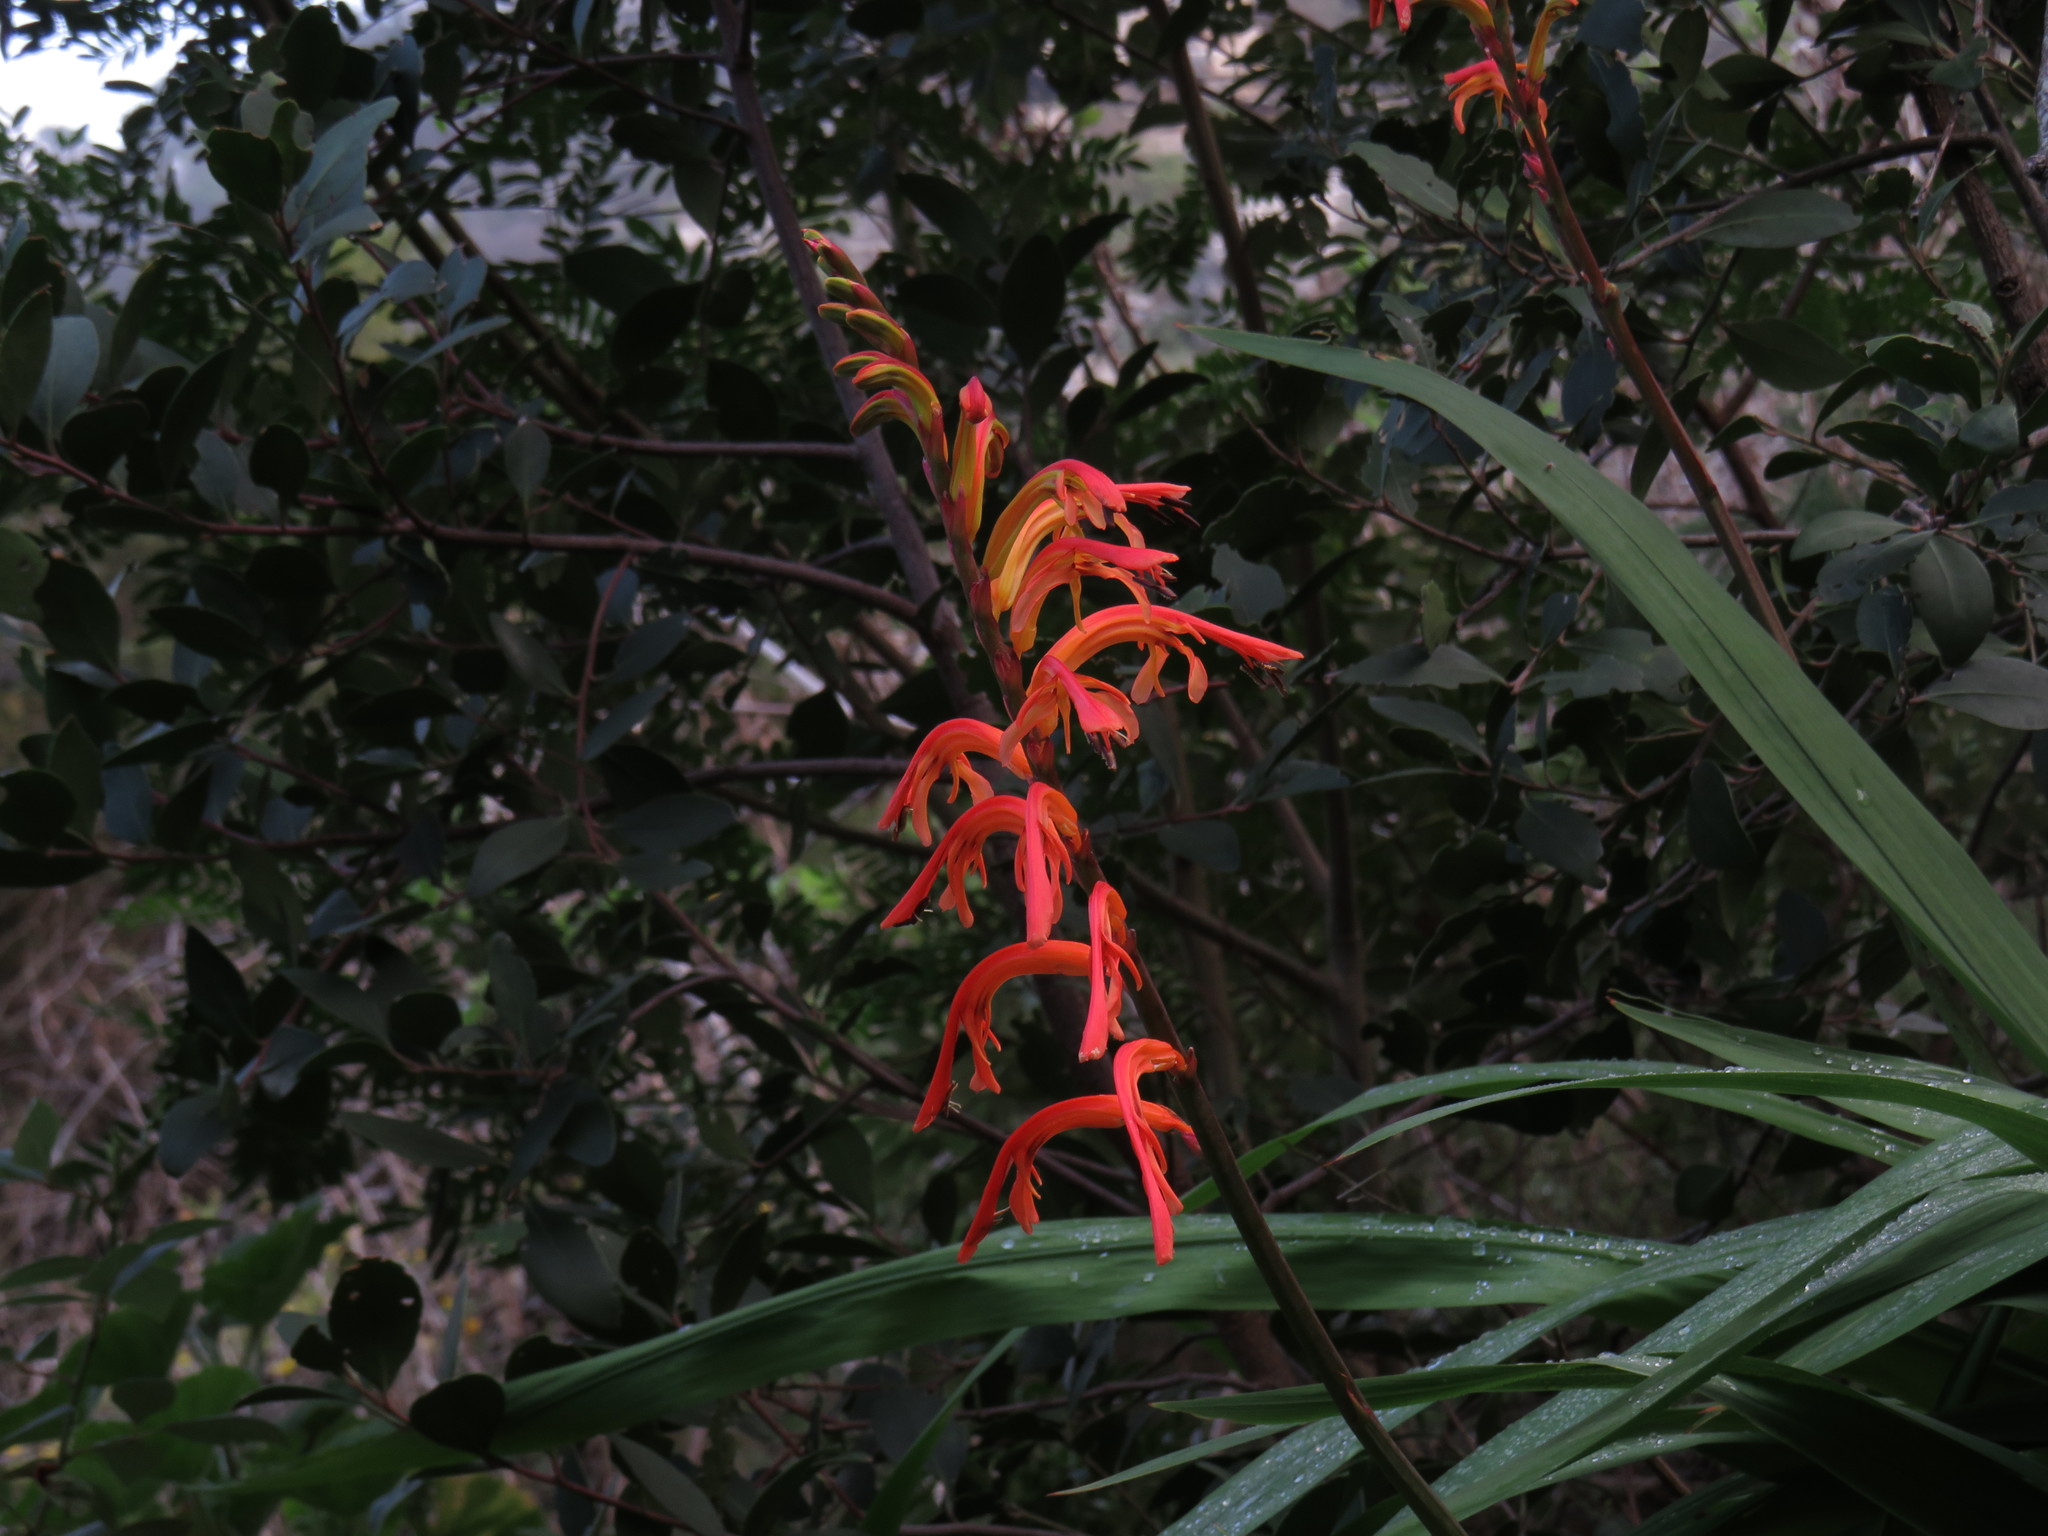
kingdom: Plantae
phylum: Tracheophyta
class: Liliopsida
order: Asparagales
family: Iridaceae
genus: Chasmanthe
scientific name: Chasmanthe floribunda
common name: African cornflag
